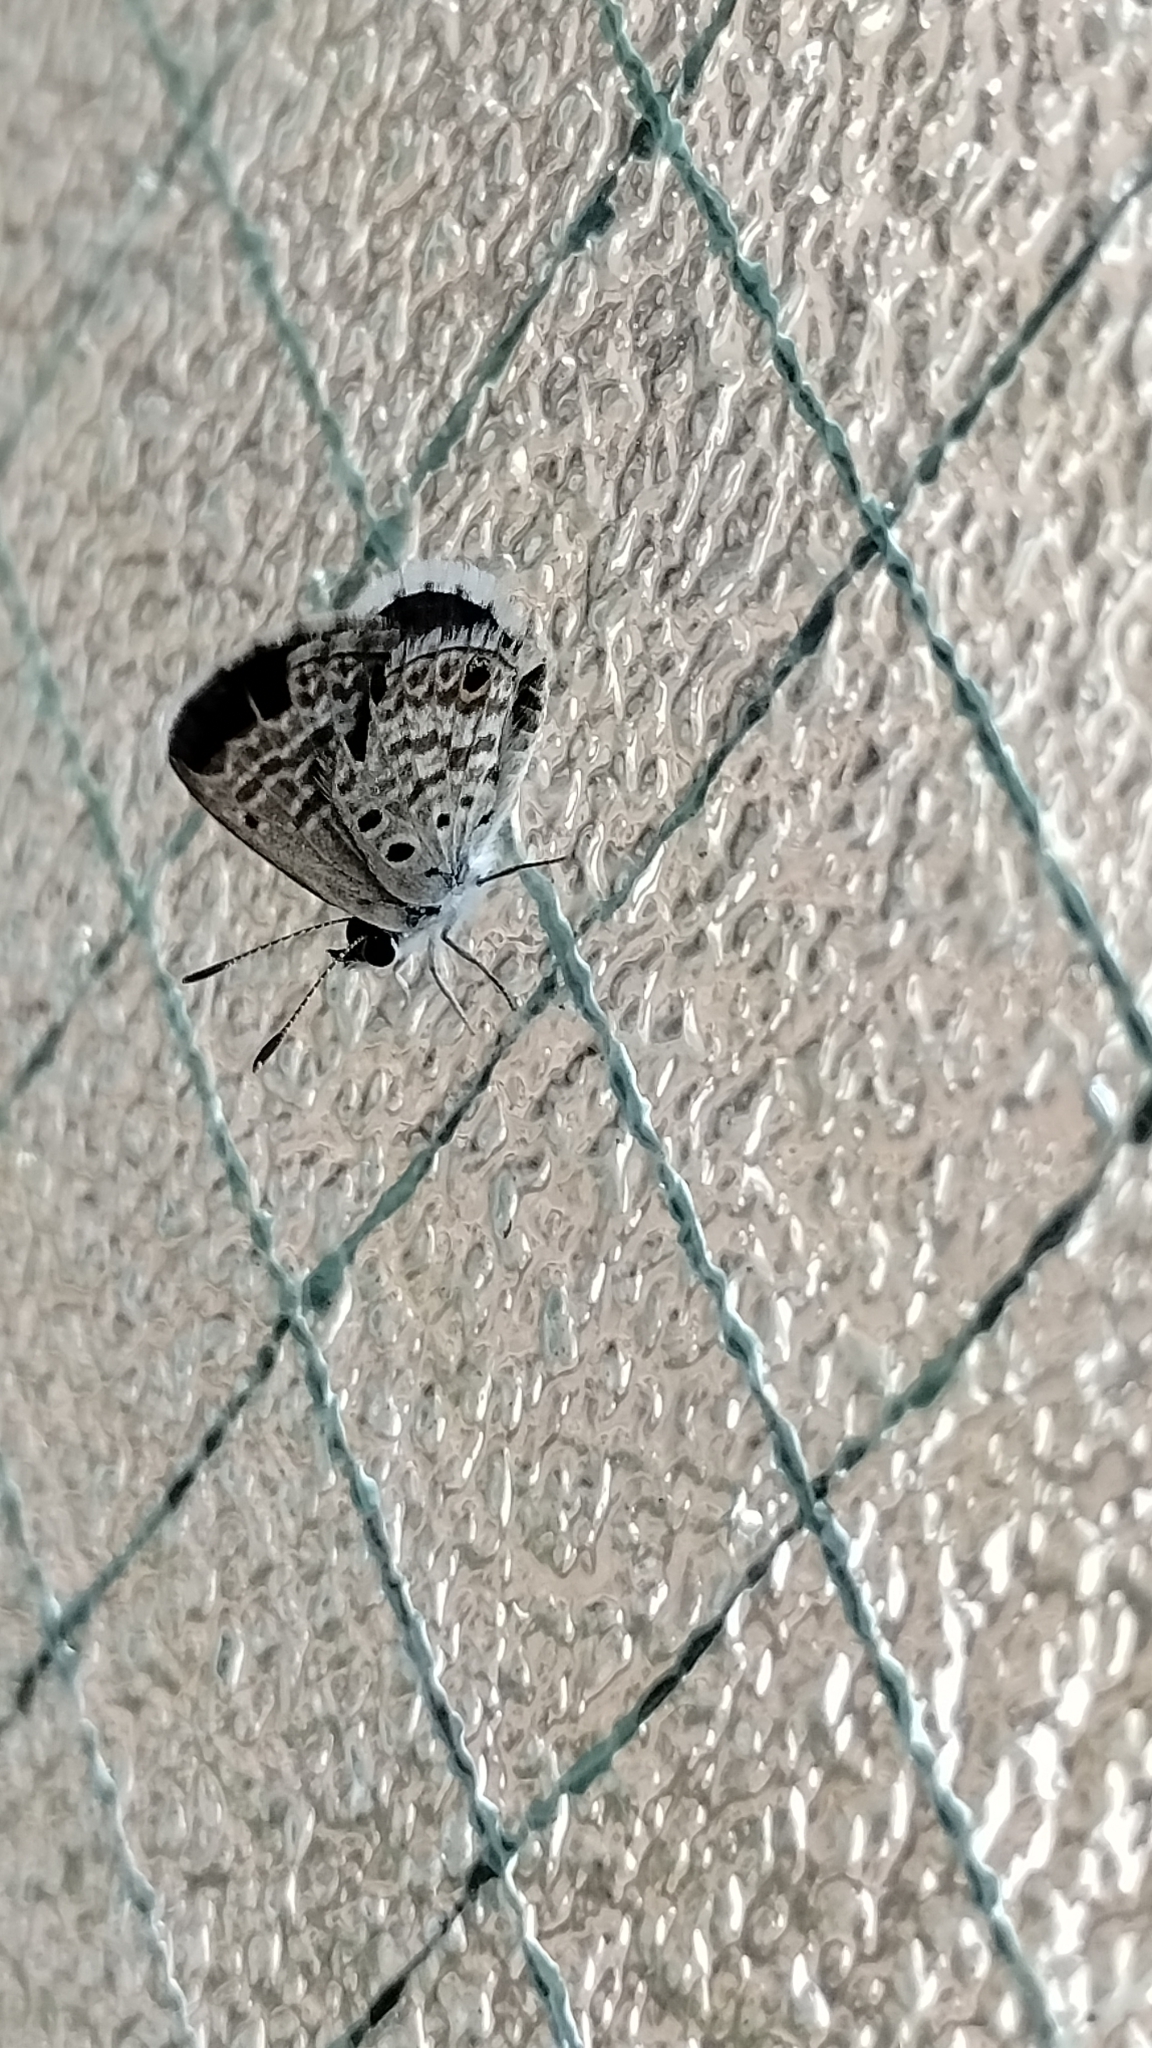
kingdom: Animalia
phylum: Arthropoda
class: Insecta
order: Lepidoptera
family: Lycaenidae
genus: Hemiargus
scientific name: Hemiargus hanno
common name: Common blue
